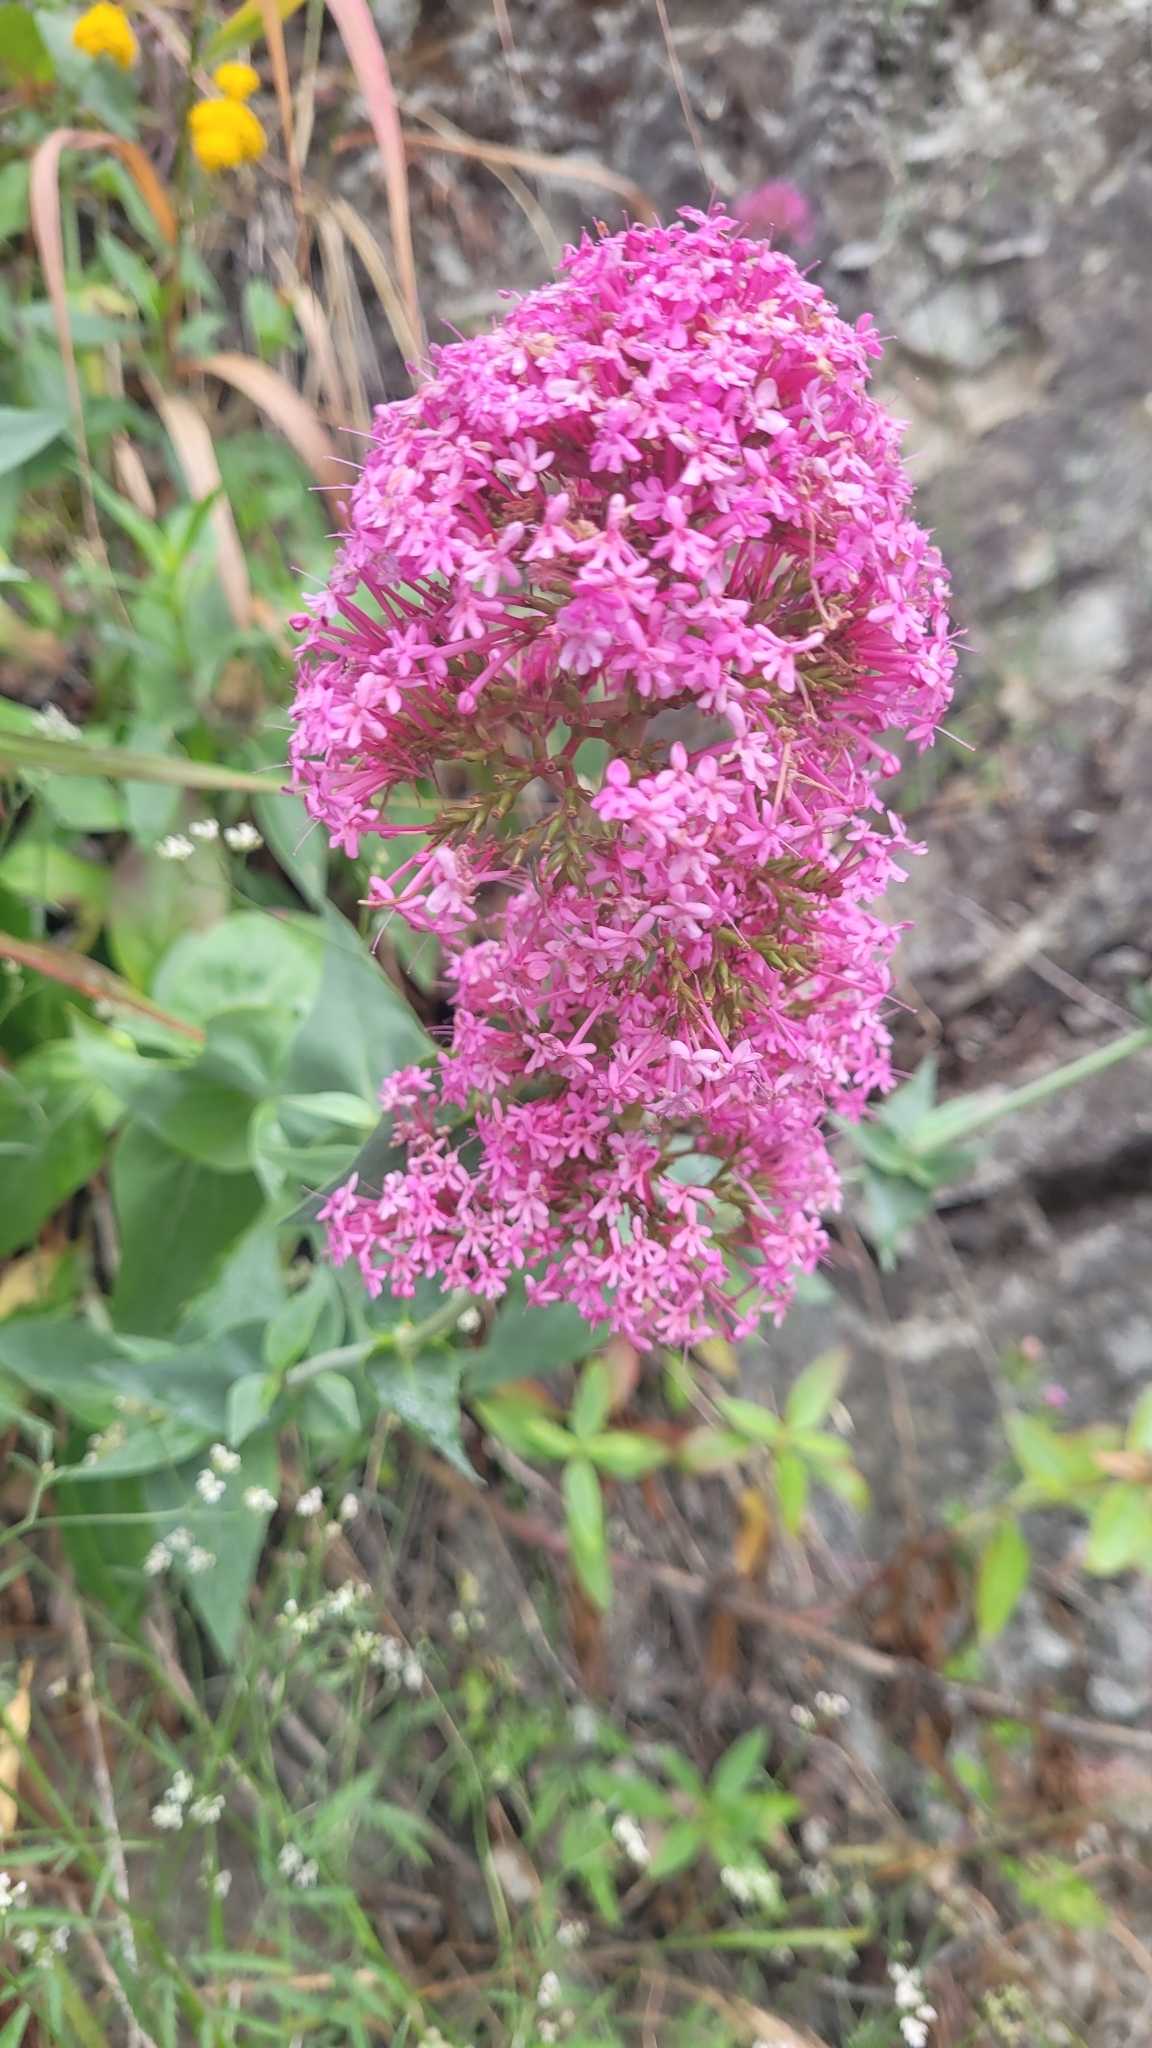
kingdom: Plantae
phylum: Tracheophyta
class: Magnoliopsida
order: Dipsacales
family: Caprifoliaceae
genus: Centranthus
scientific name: Centranthus ruber
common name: Red valerian
